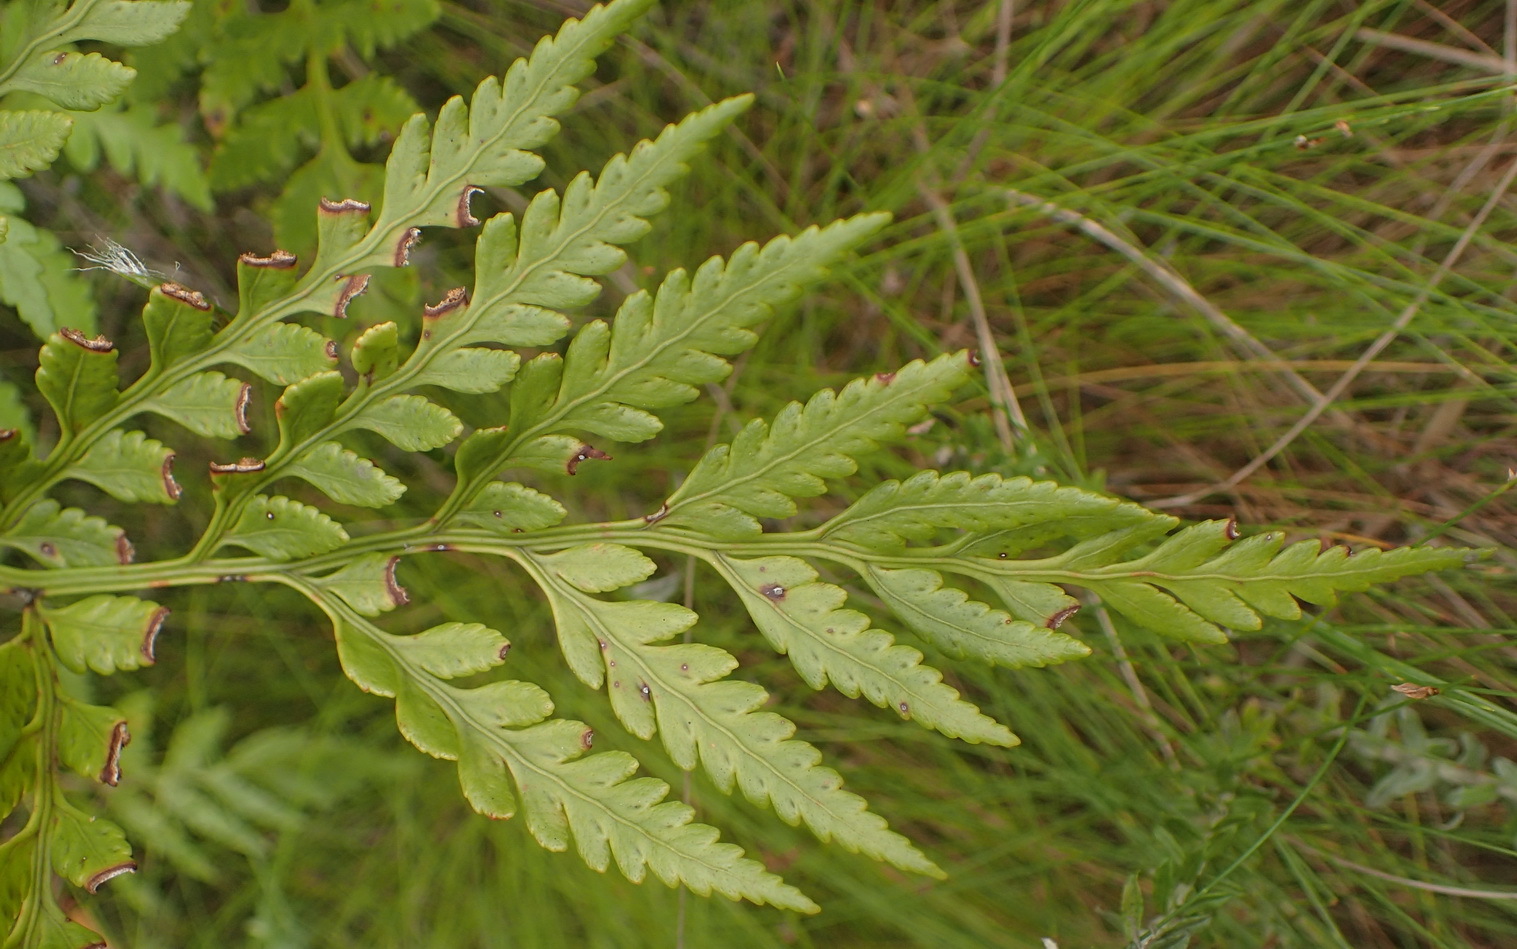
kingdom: Plantae
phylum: Tracheophyta
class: Polypodiopsida
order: Polypodiales
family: Dryopteridaceae
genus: Rumohra
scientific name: Rumohra adiantiformis
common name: Leather fern
